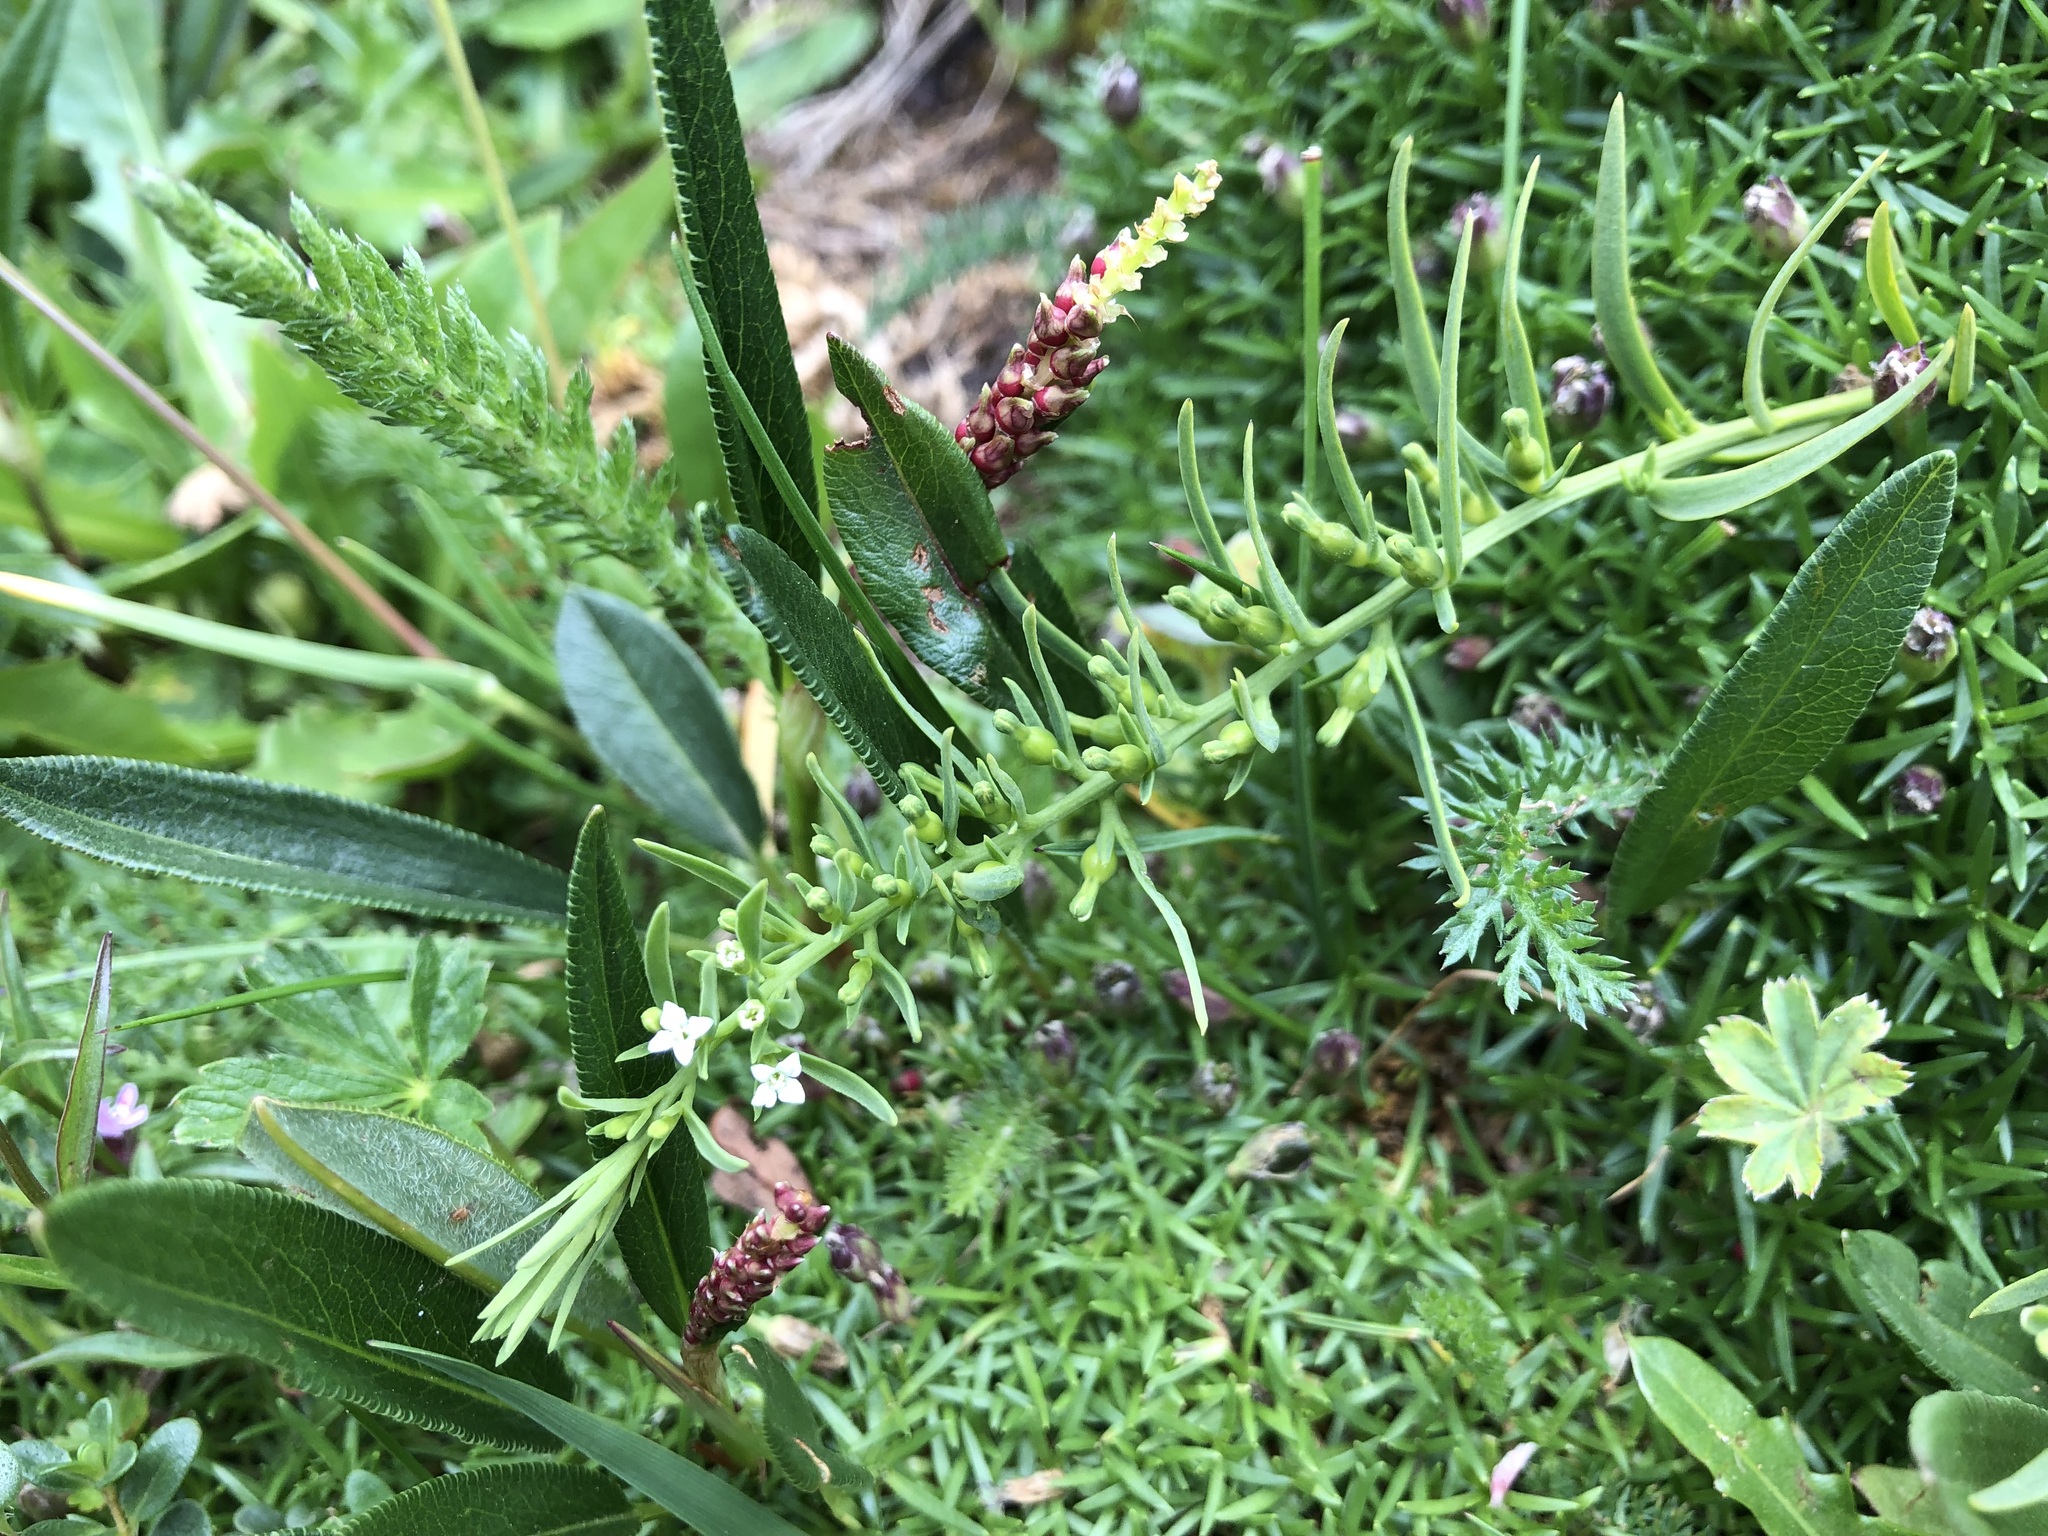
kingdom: Plantae
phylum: Tracheophyta
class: Magnoliopsida
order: Santalales
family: Thesiaceae
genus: Thesium
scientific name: Thesium alpinum
